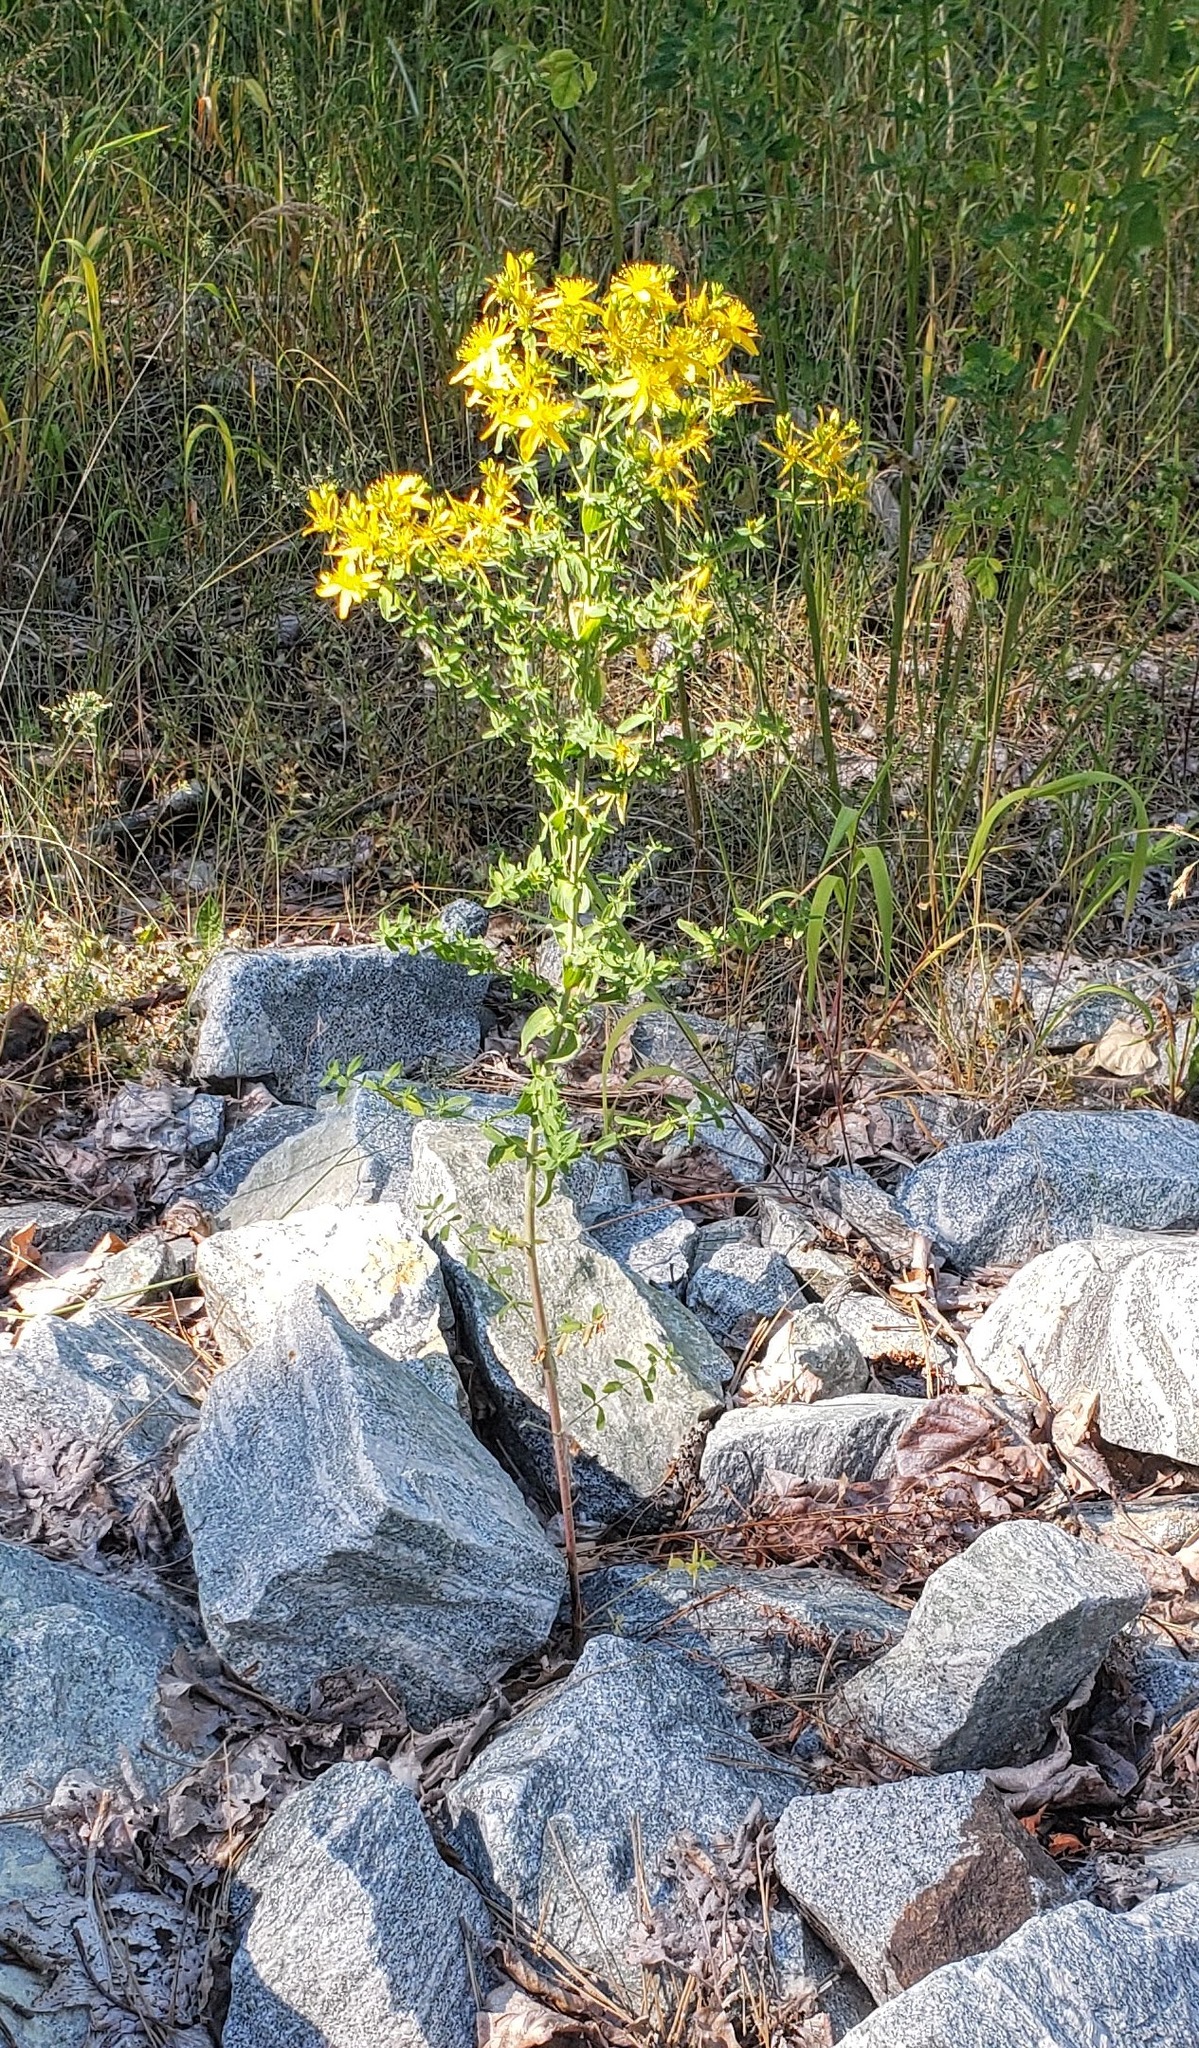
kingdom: Plantae
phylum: Tracheophyta
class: Magnoliopsida
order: Malpighiales
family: Hypericaceae
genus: Hypericum
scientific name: Hypericum perforatum
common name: Common st. johnswort
